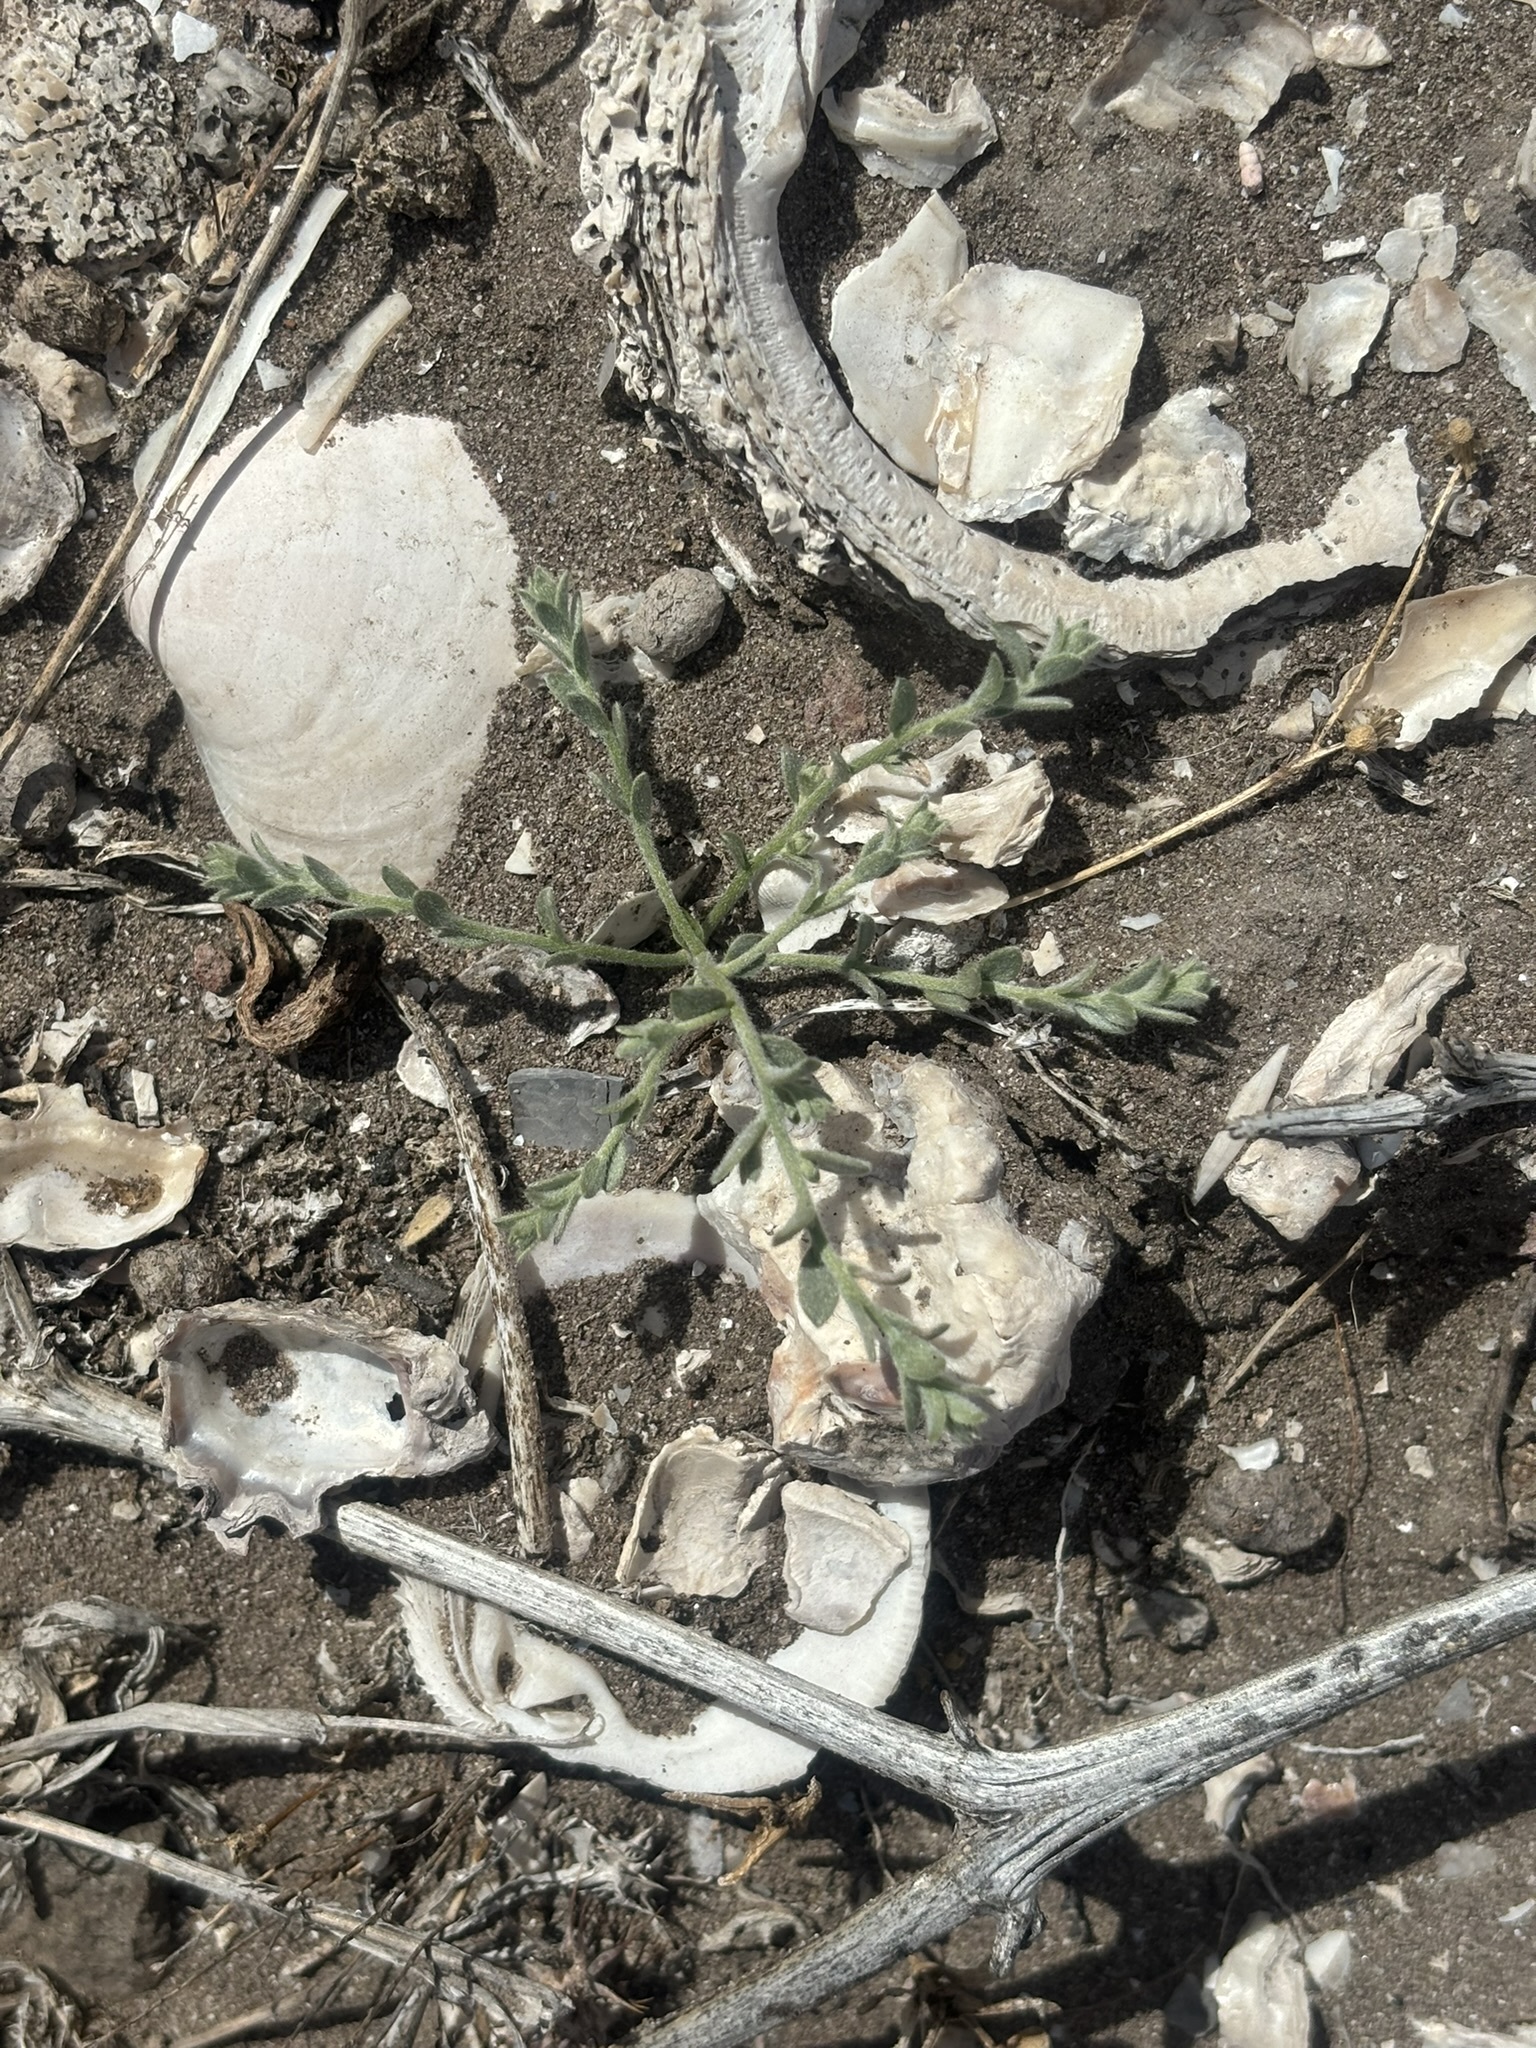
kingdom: Plantae
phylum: Tracheophyta
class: Magnoliopsida
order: Solanales
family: Convolvulaceae
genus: Cressa
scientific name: Cressa truxillensis
